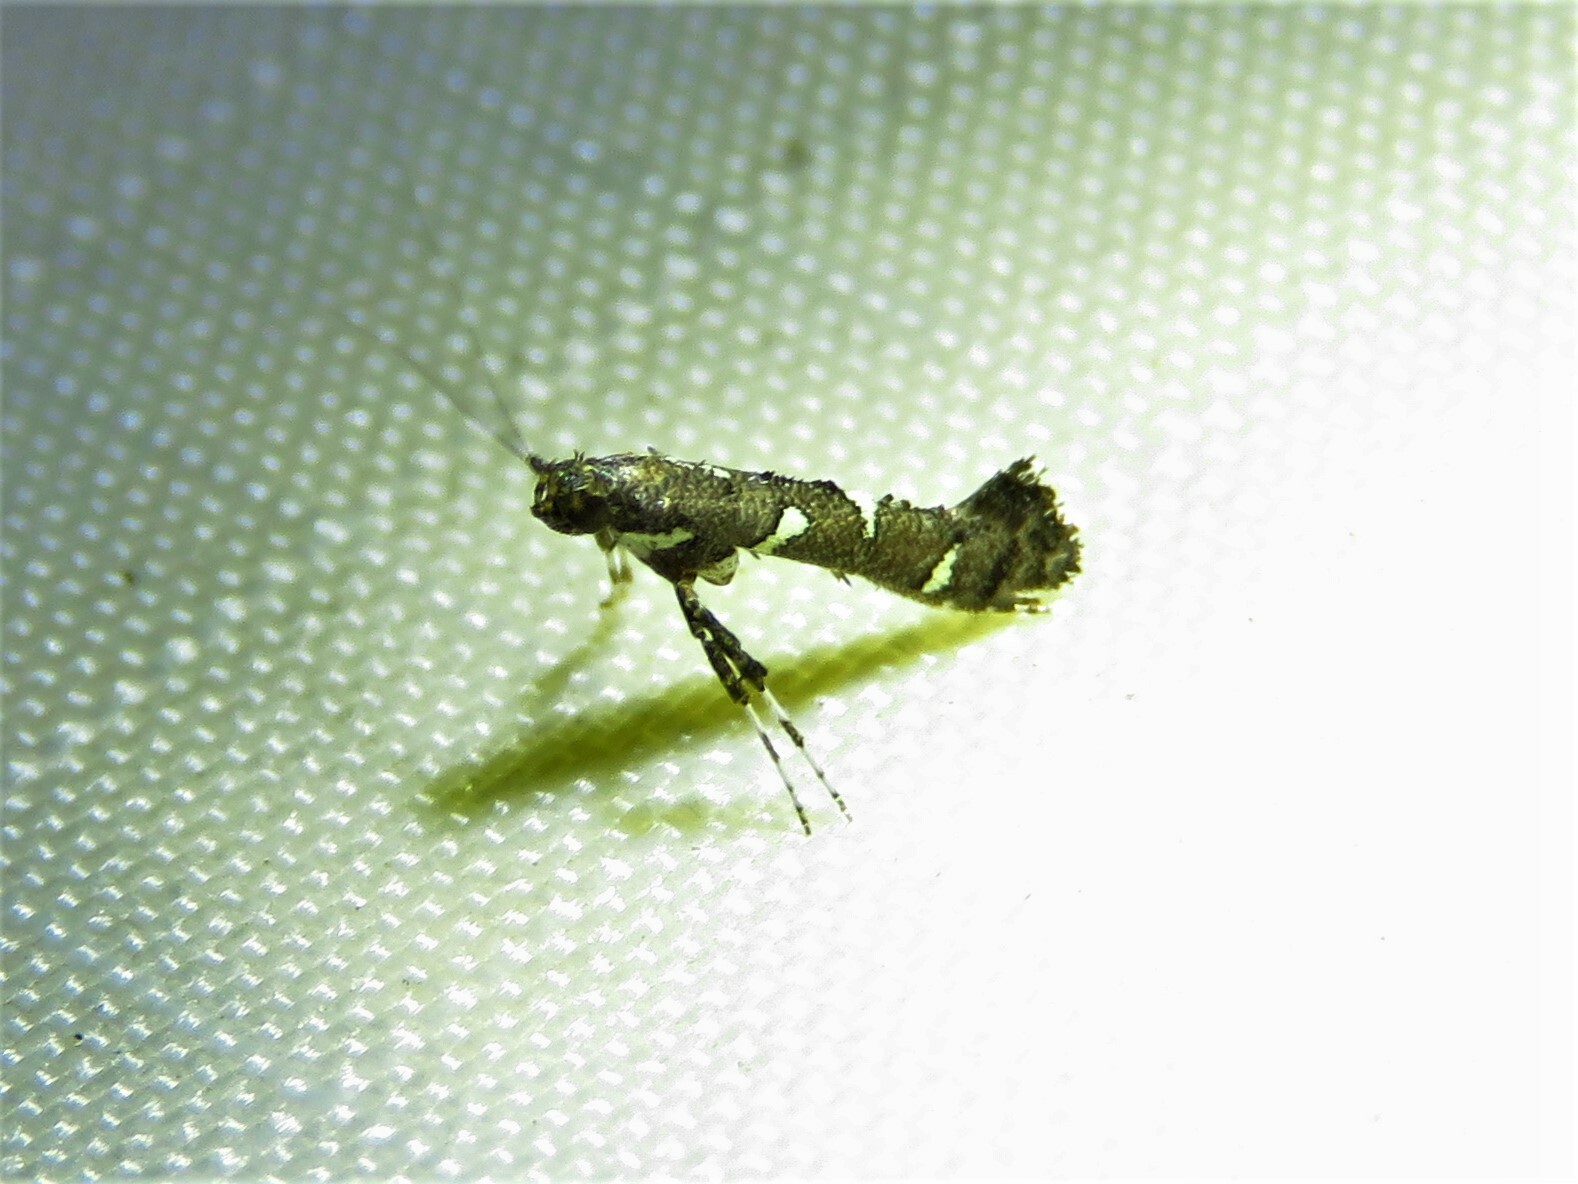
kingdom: Animalia
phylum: Arthropoda
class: Insecta
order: Lepidoptera
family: Gracillariidae
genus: Caloptilia
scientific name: Caloptilia triadicae
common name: Tallow leaf roller
